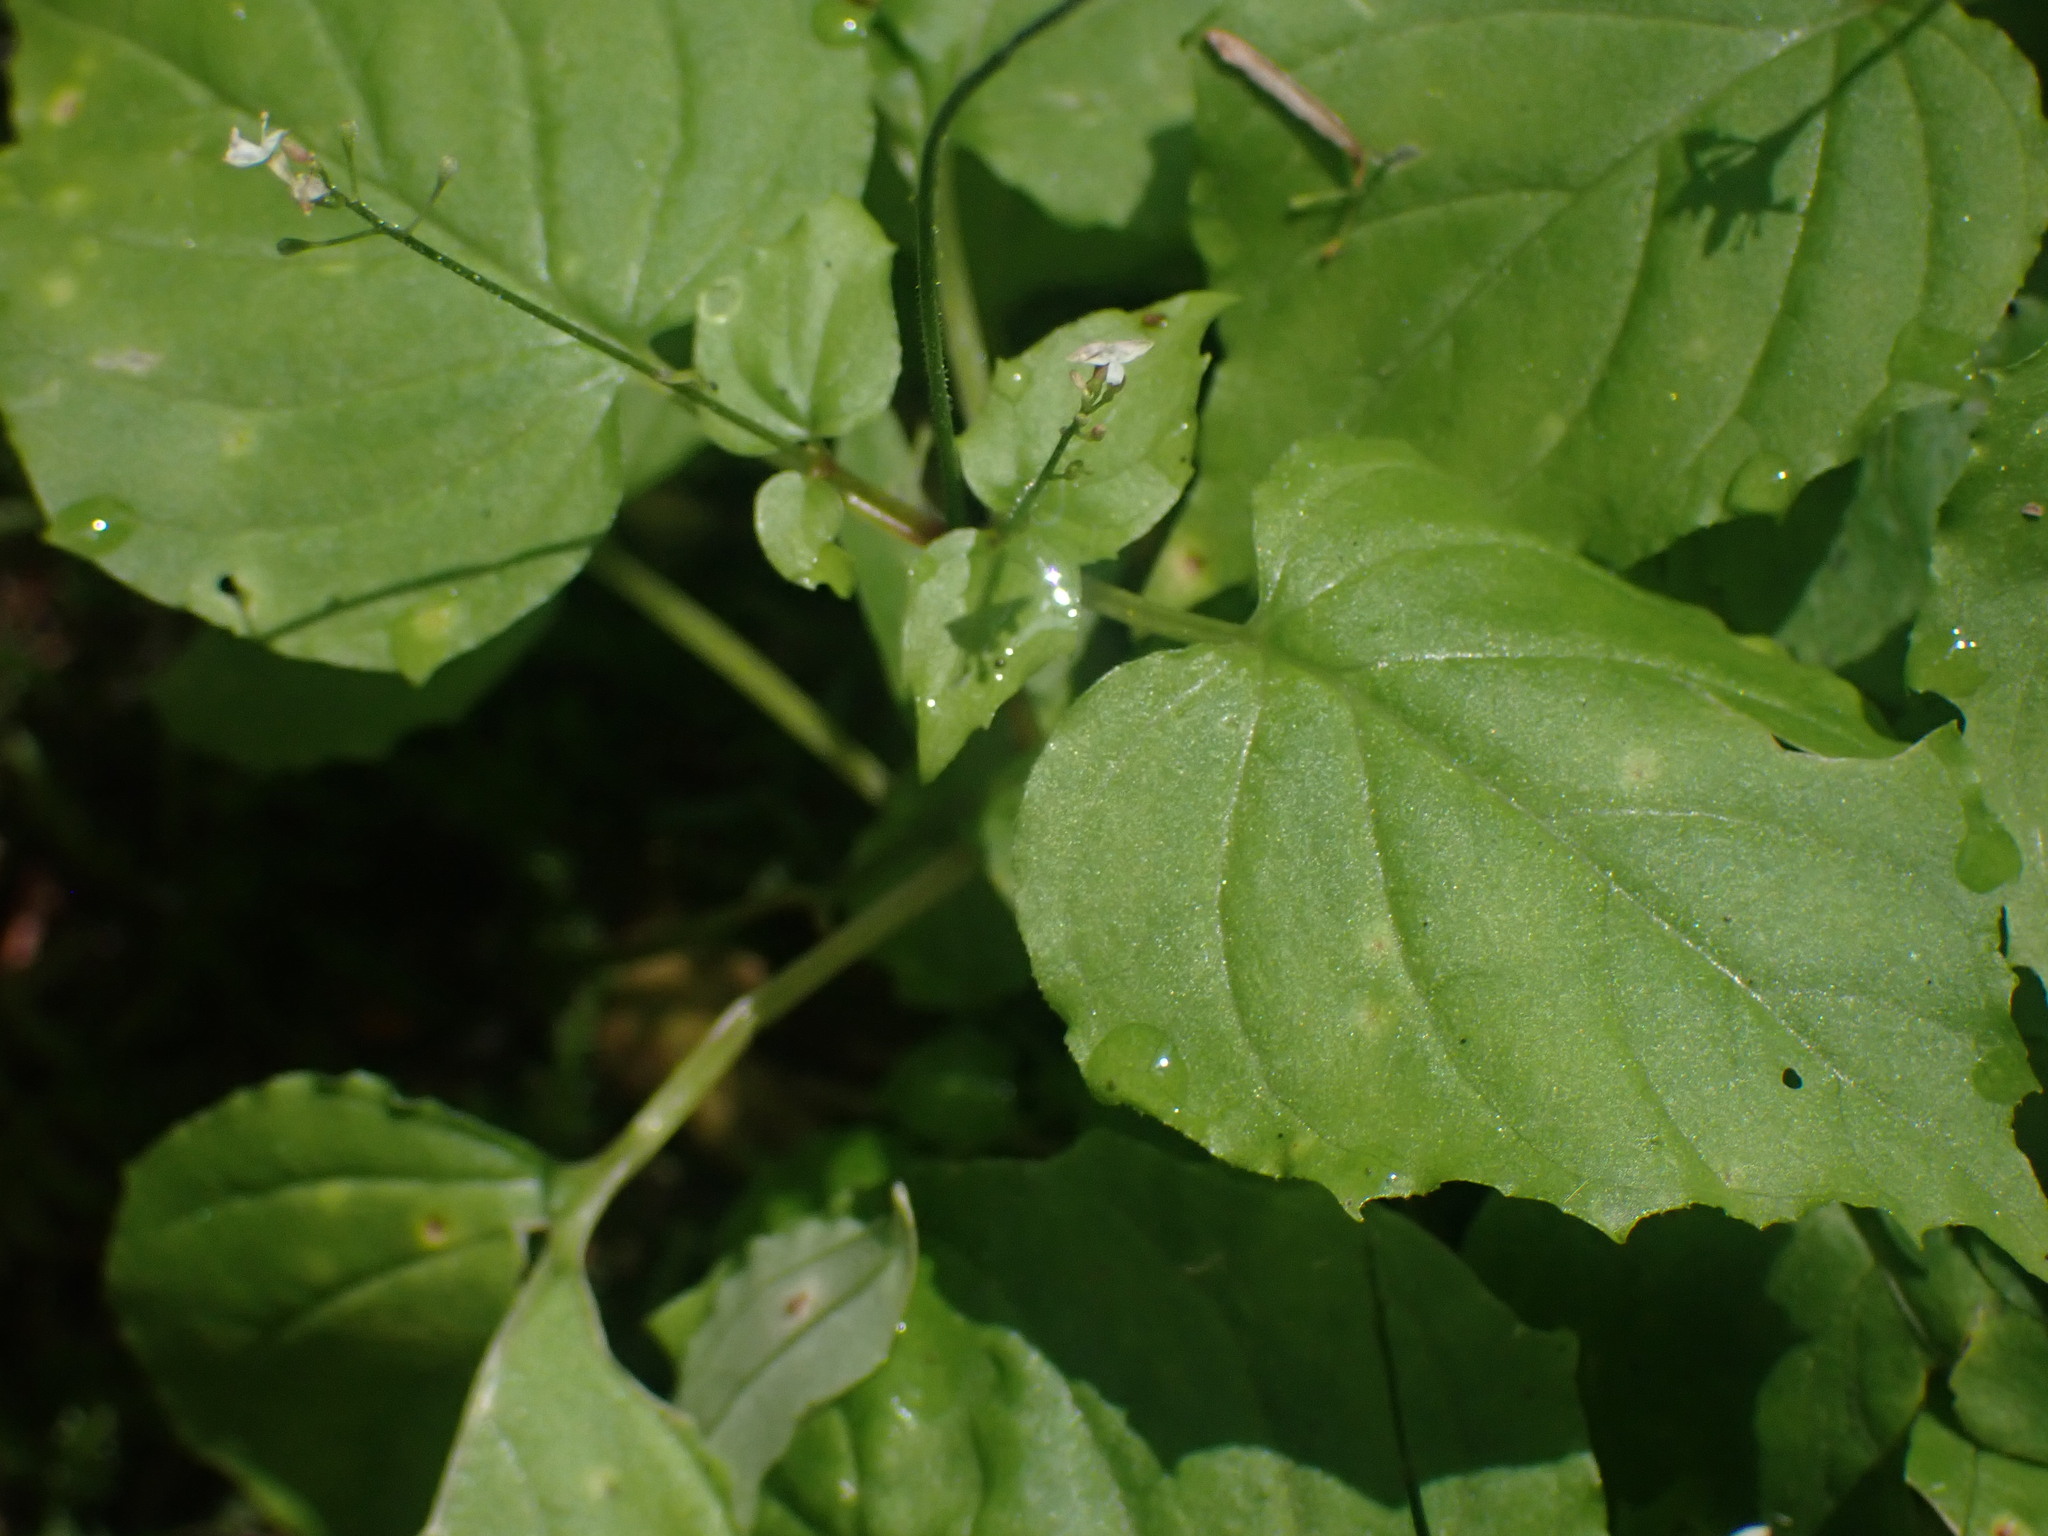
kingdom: Plantae
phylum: Tracheophyta
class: Magnoliopsida
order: Myrtales
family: Onagraceae
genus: Circaea
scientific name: Circaea alpina
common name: Alpine enchanter's-nightshade
